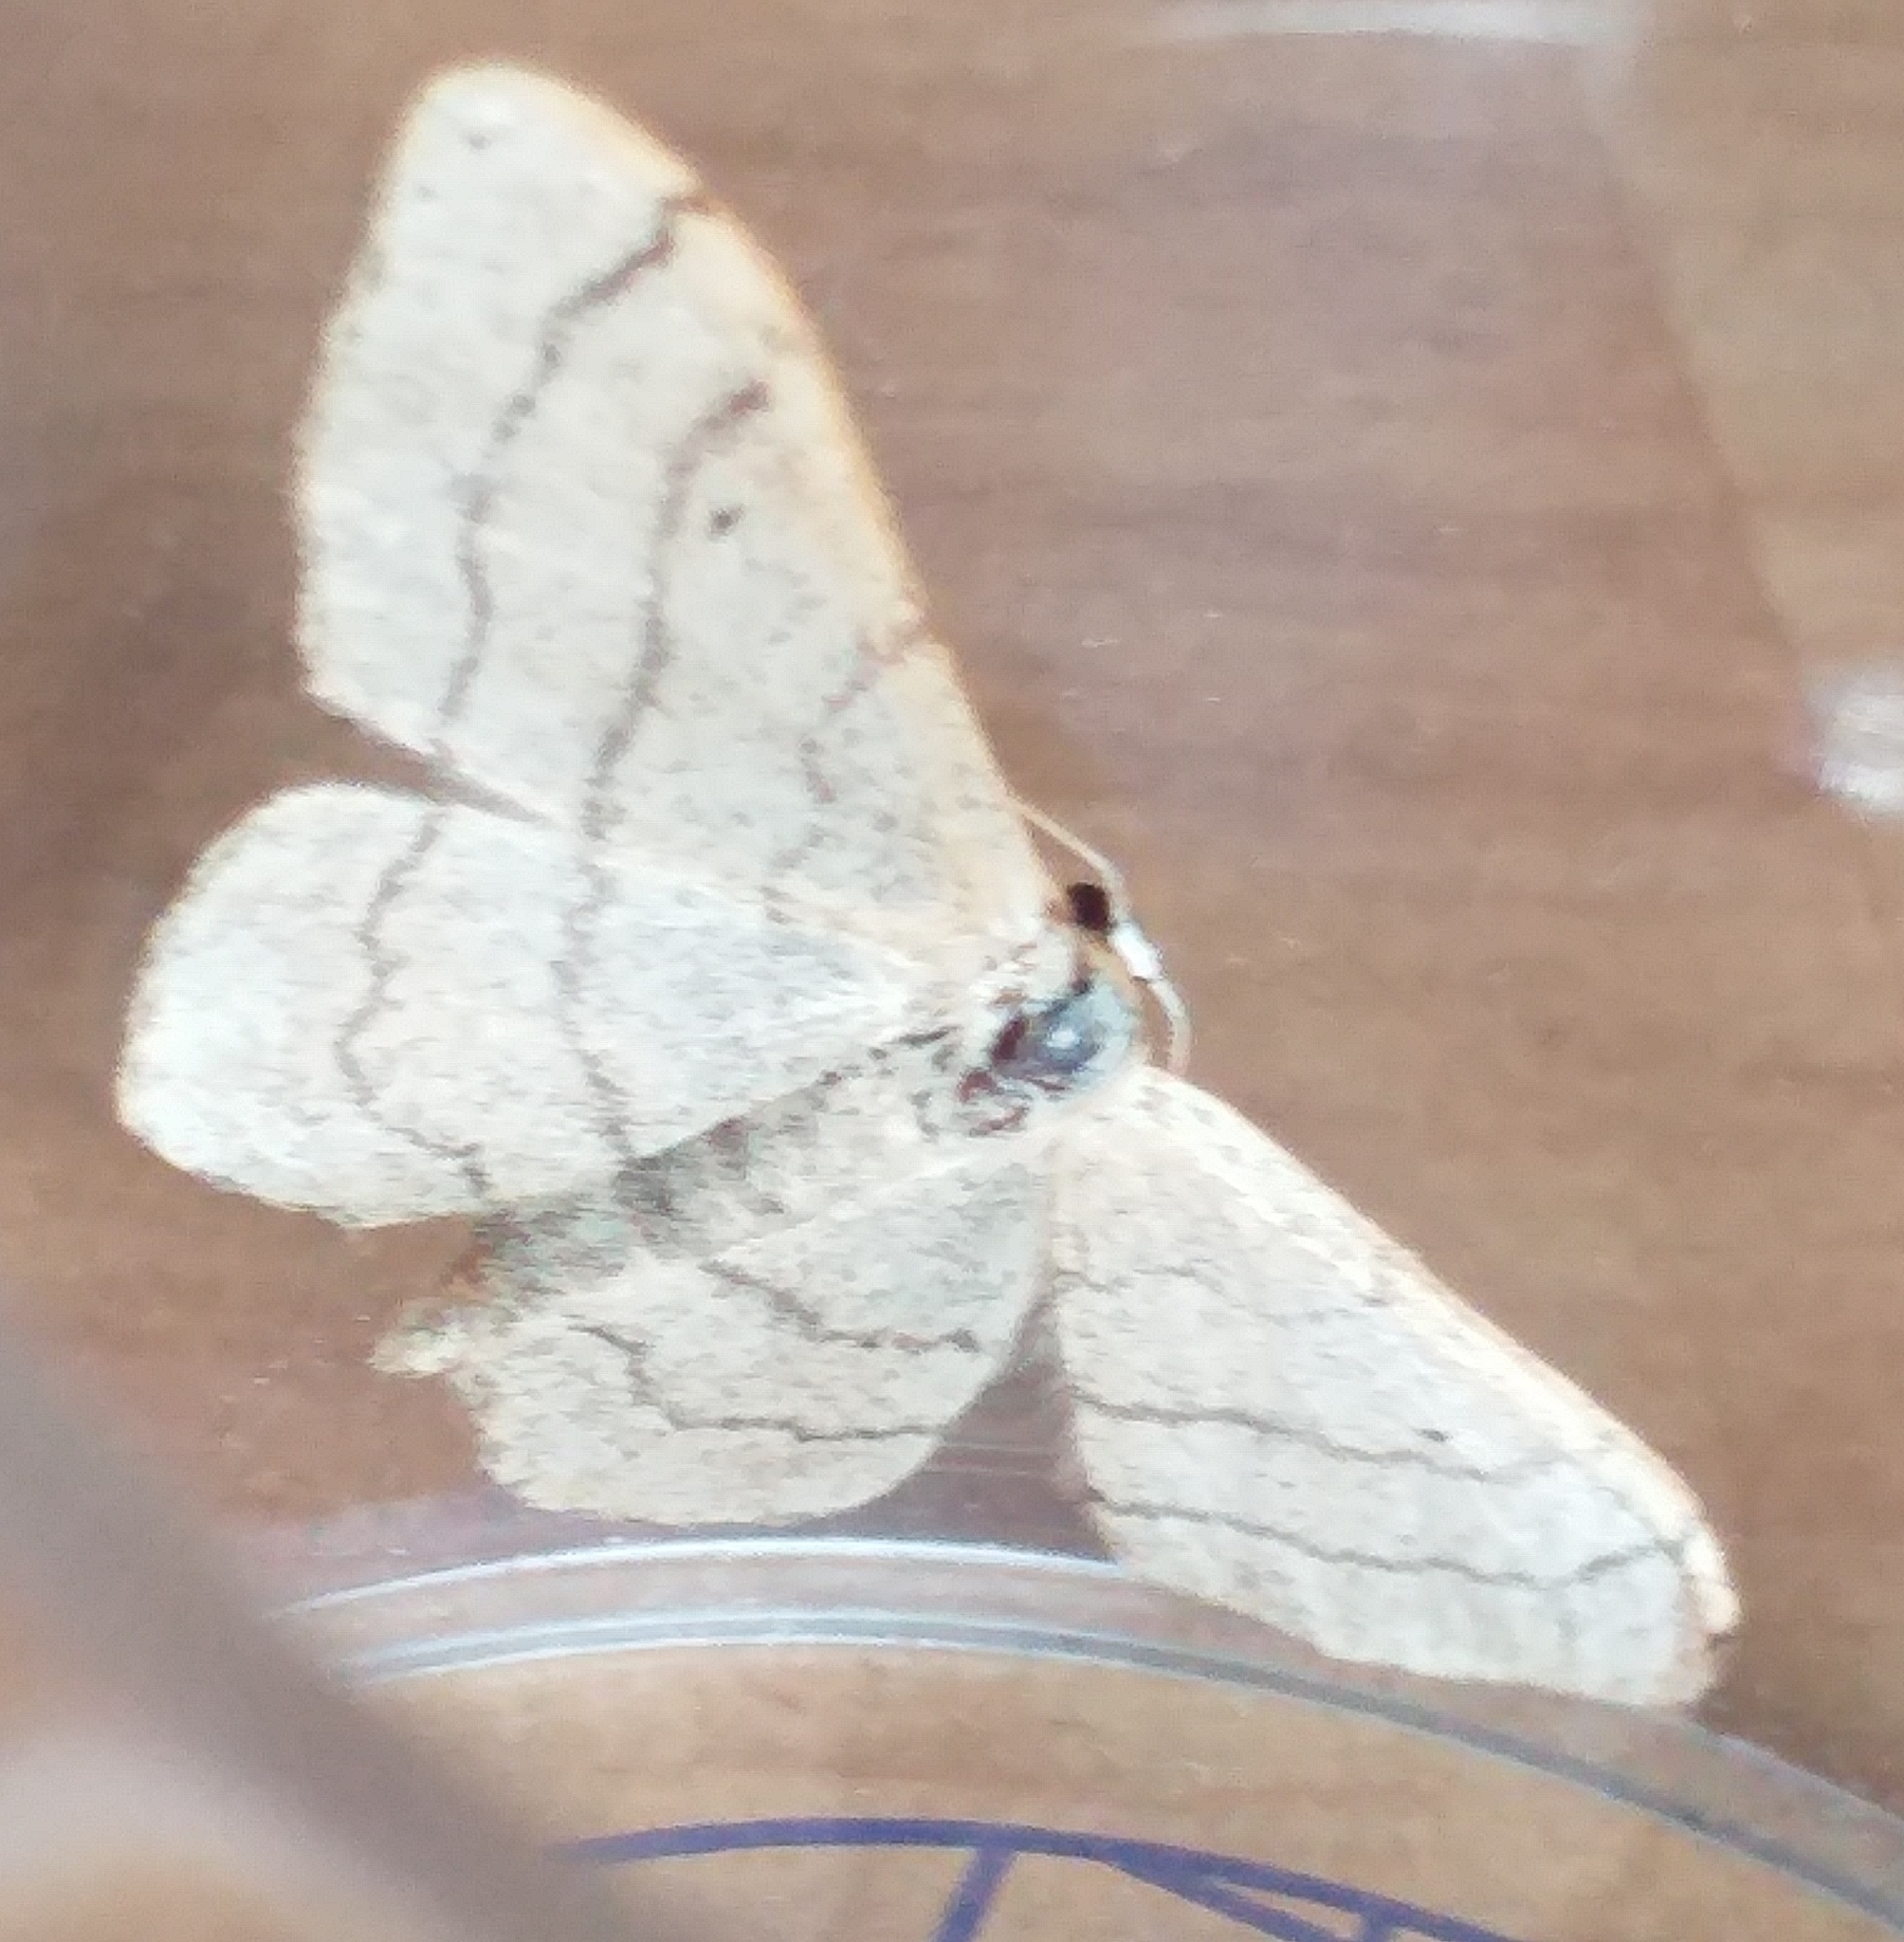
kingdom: Animalia
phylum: Arthropoda
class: Insecta
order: Lepidoptera
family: Geometridae
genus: Idaea
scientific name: Idaea aversata
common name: Riband wave
